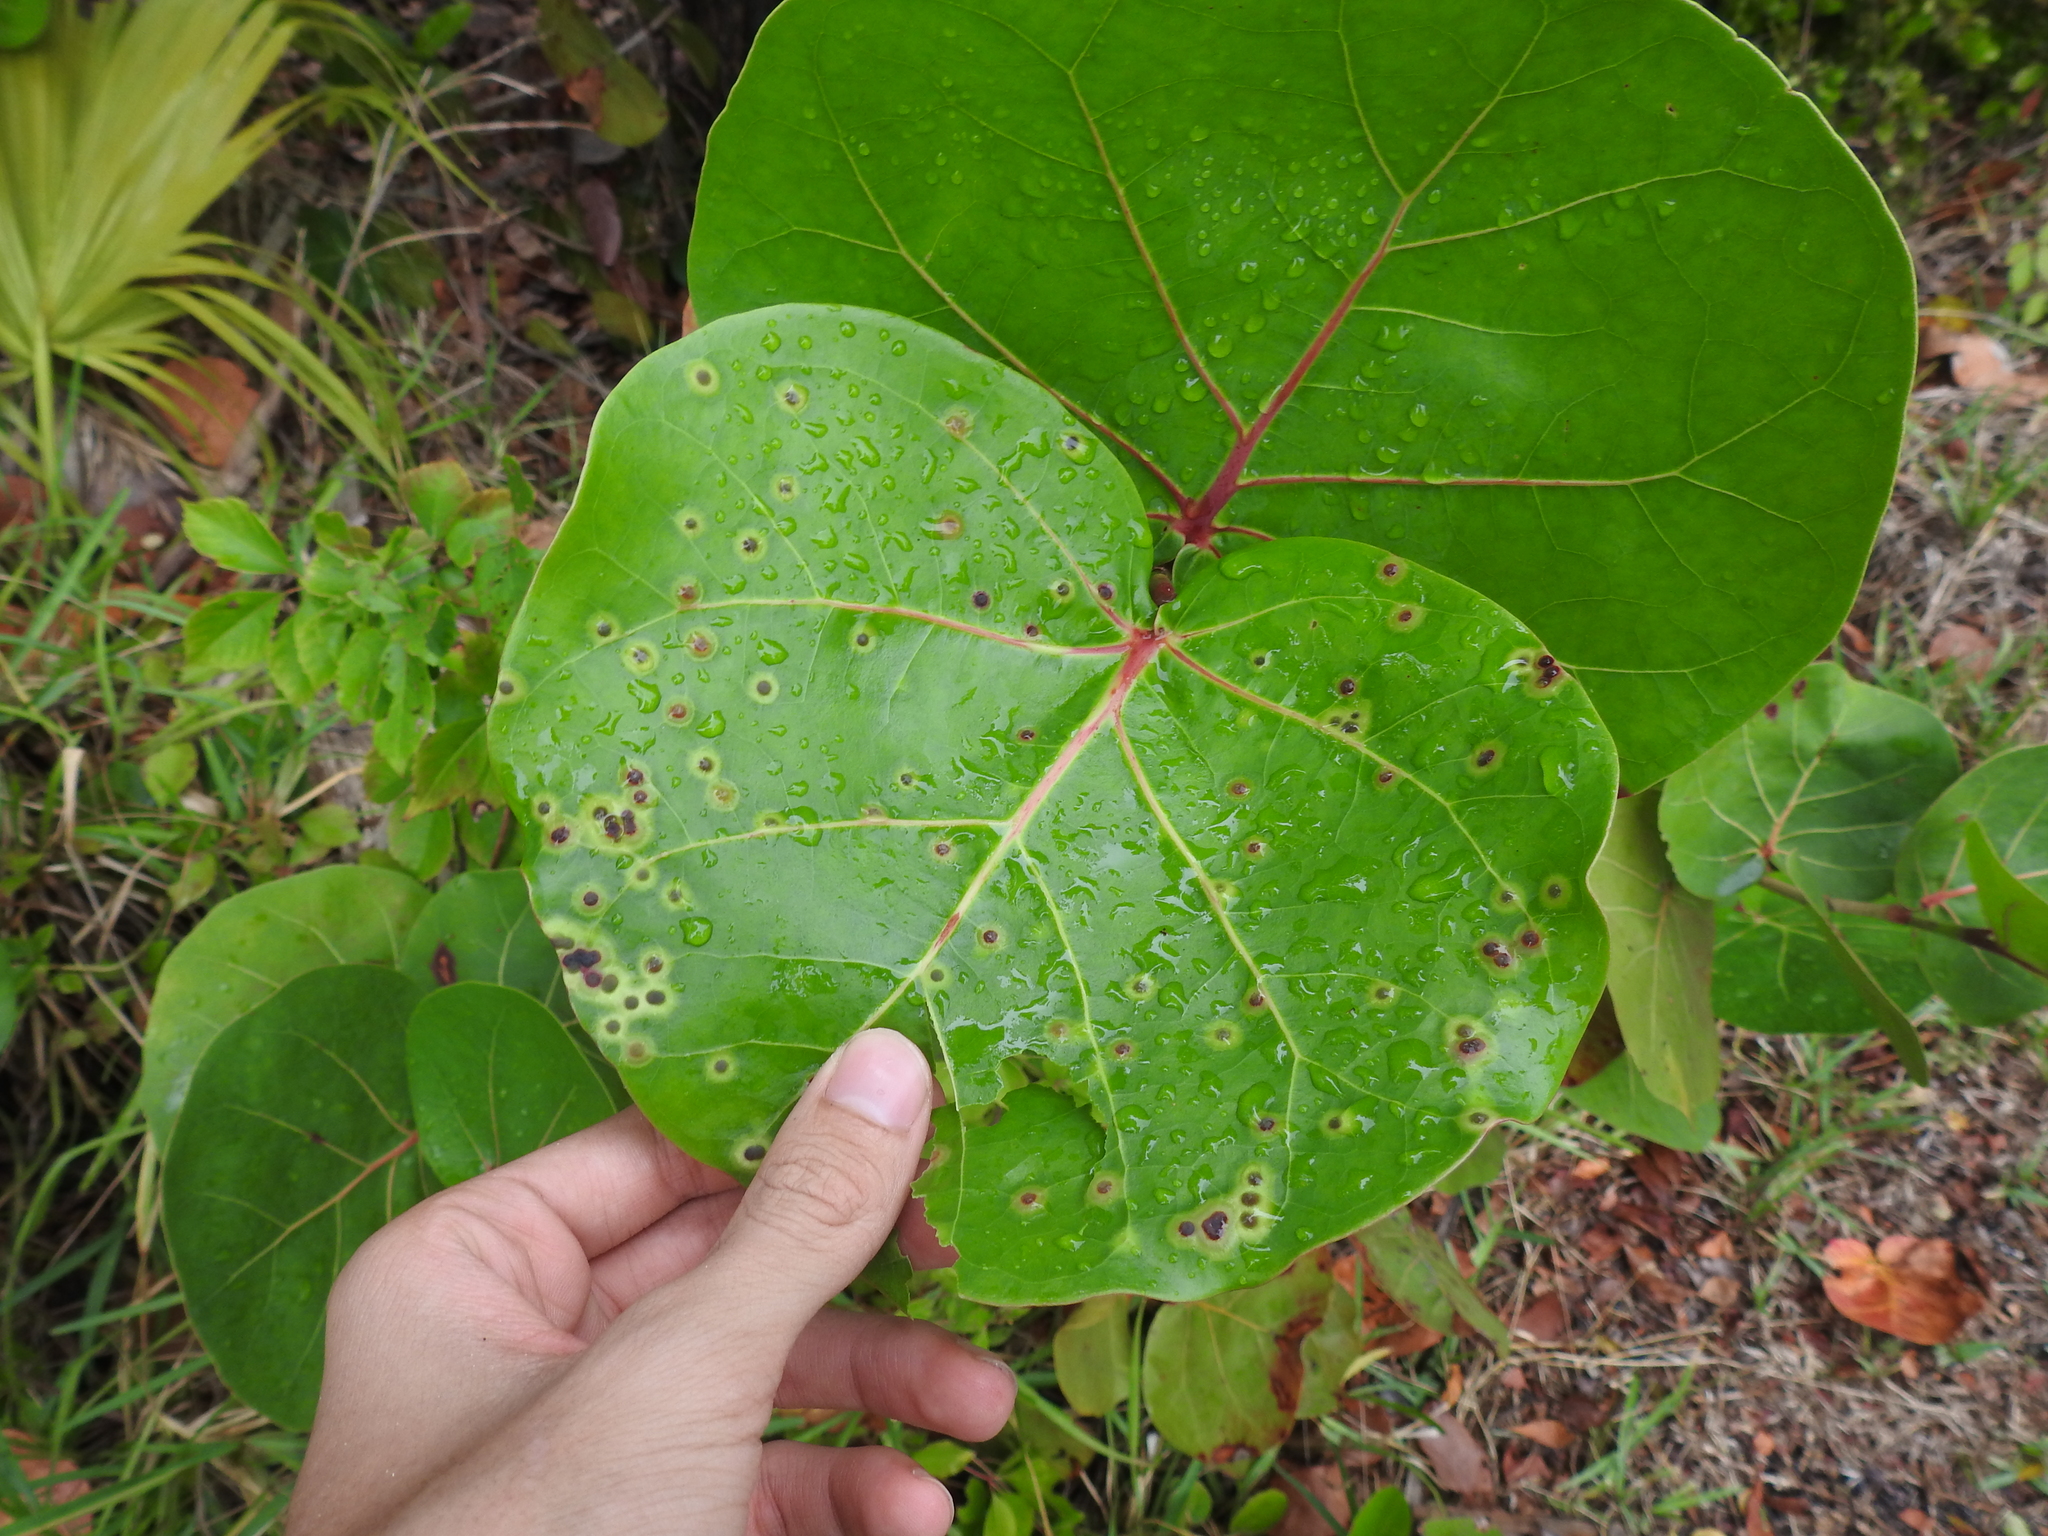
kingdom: Animalia
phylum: Arthropoda
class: Insecta
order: Diptera
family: Cecidomyiidae
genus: Ctenodactylomyia
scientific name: Ctenodactylomyia watsoni
